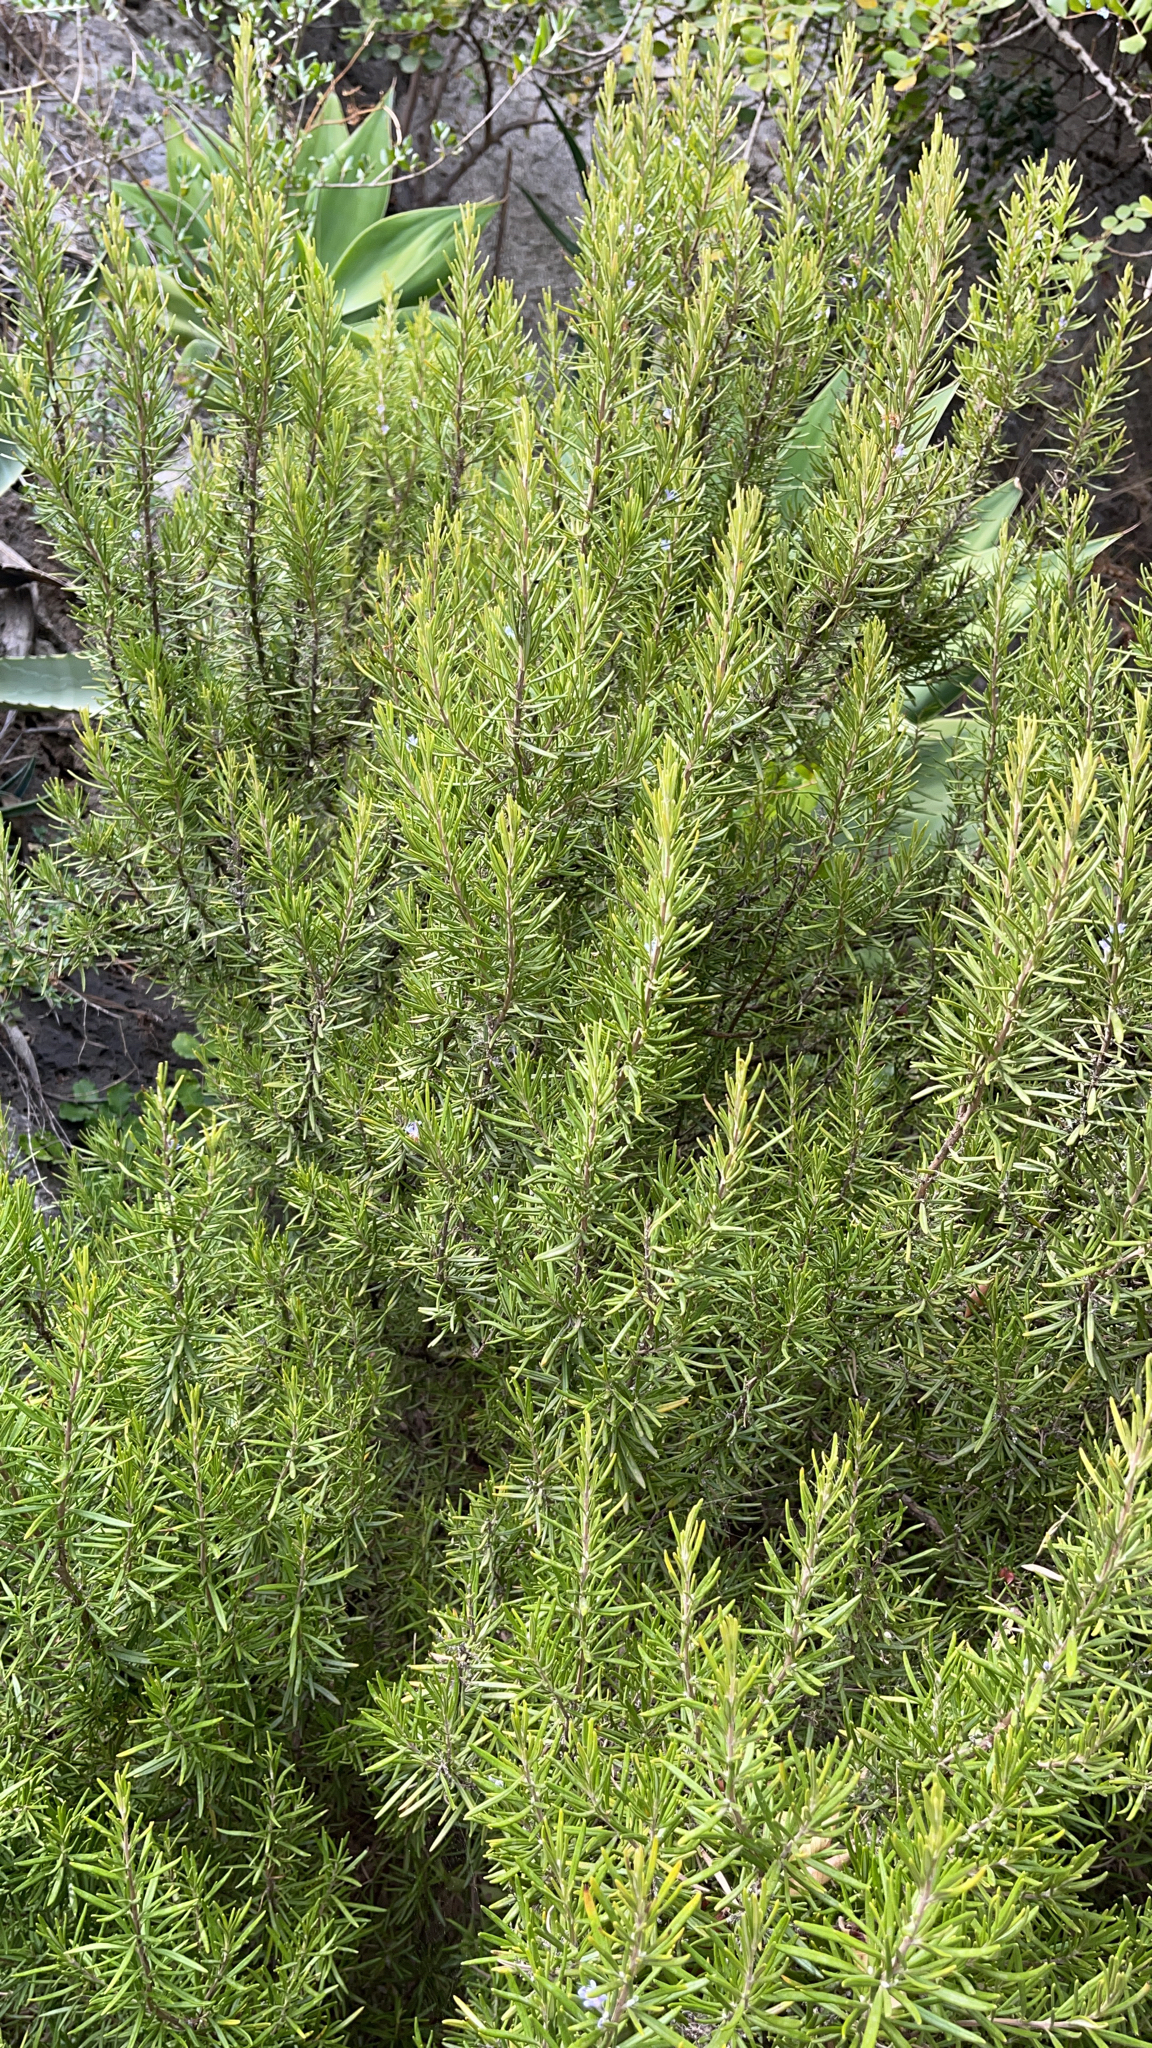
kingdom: Plantae
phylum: Tracheophyta
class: Magnoliopsida
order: Lamiales
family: Lamiaceae
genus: Salvia
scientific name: Salvia rosmarinus
